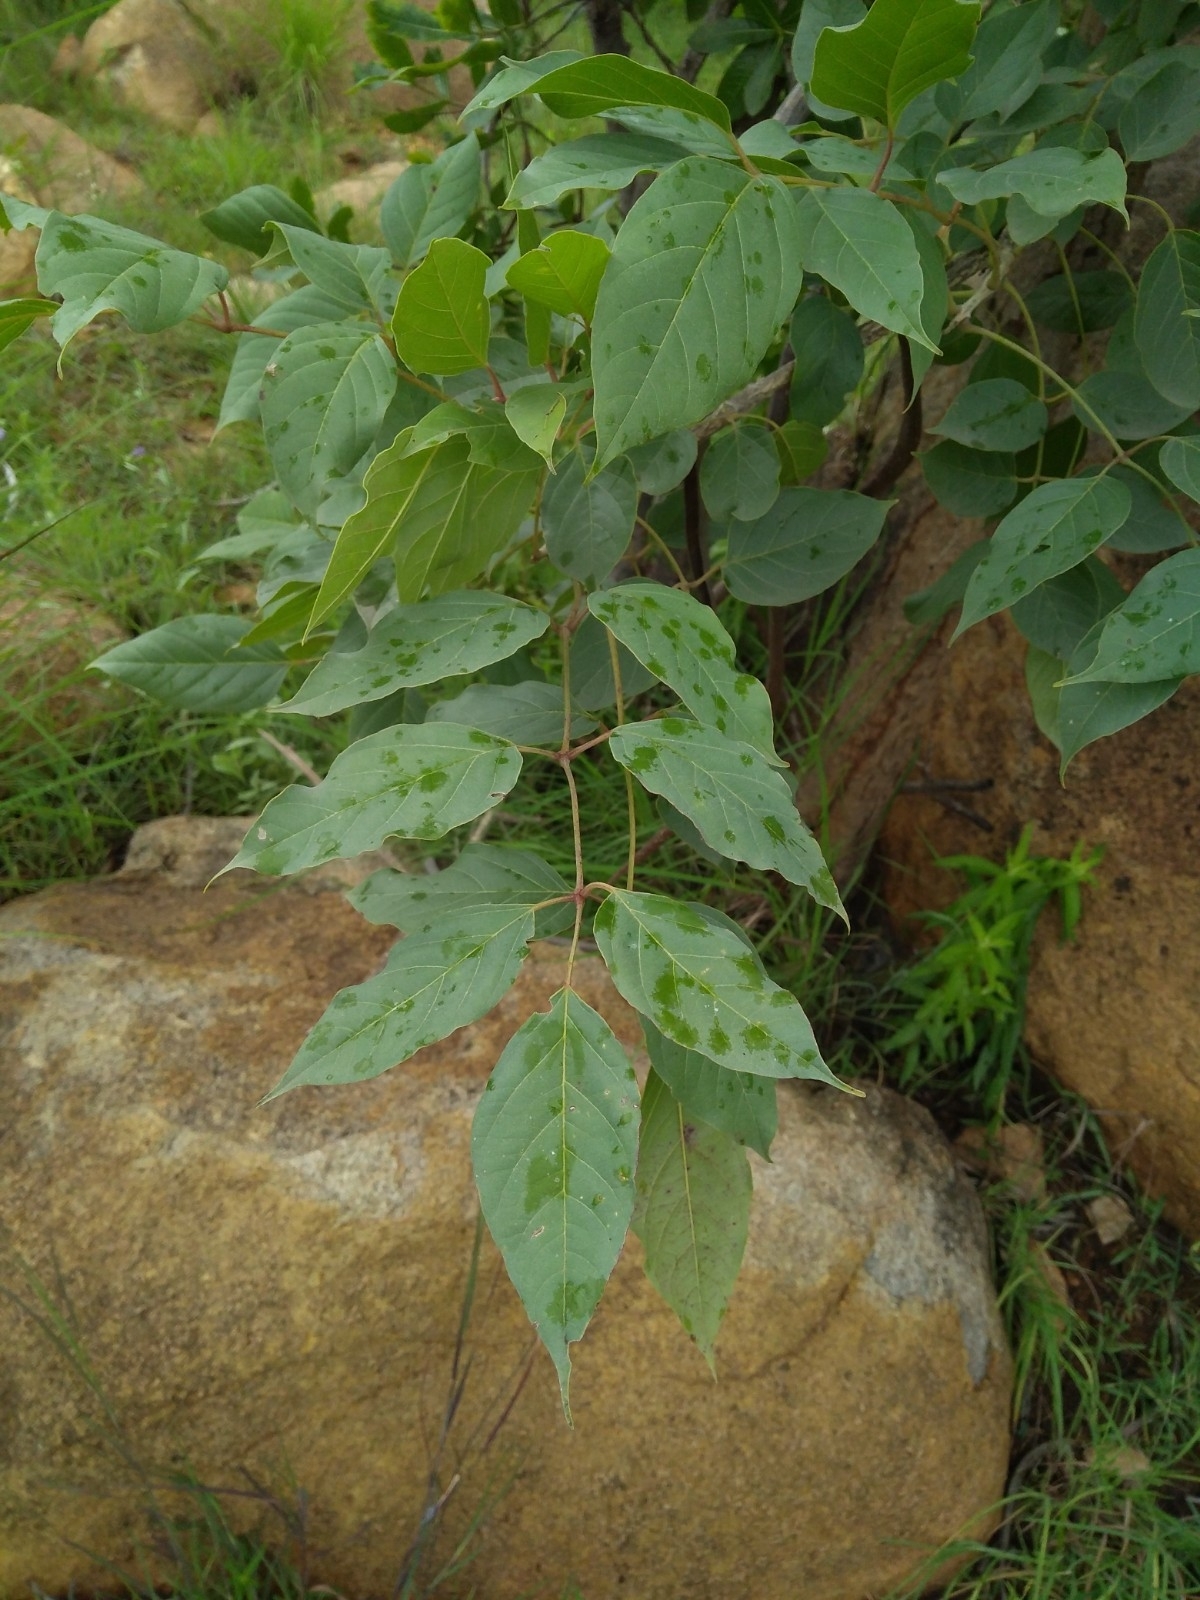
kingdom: Plantae
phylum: Tracheophyta
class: Magnoliopsida
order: Lamiales
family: Bignoniaceae
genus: Dolichandrone
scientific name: Dolichandrone atrovirens
